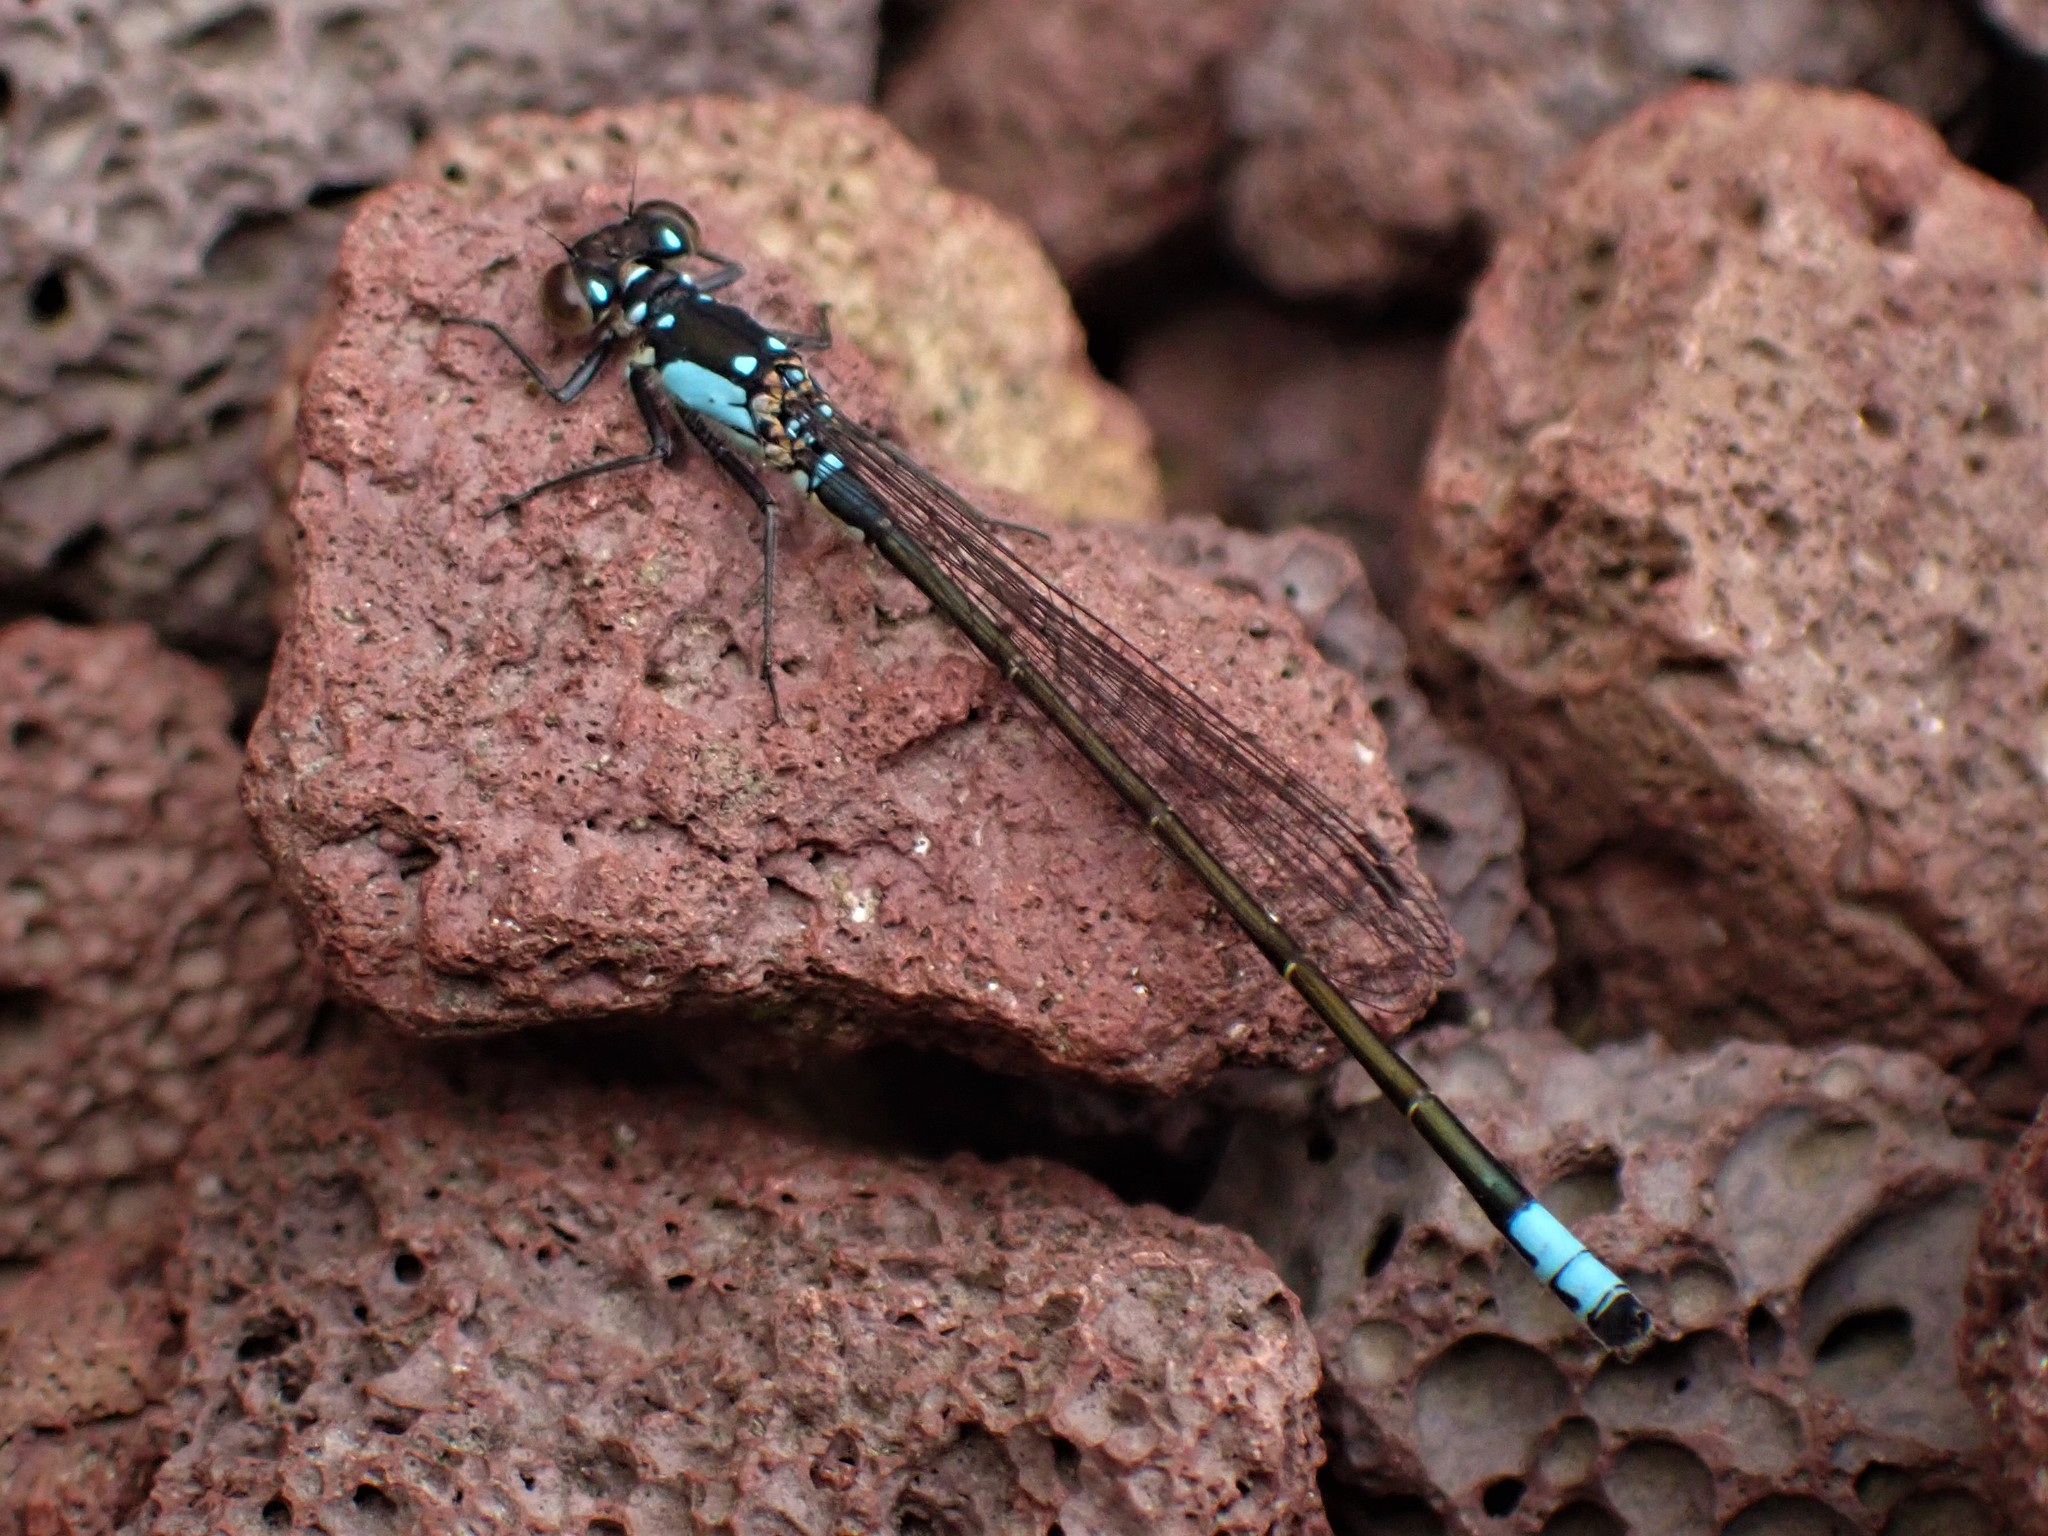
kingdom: Animalia
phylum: Arthropoda
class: Insecta
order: Odonata
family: Coenagrionidae
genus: Ischnura
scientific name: Ischnura cervula
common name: Pacific forktail
